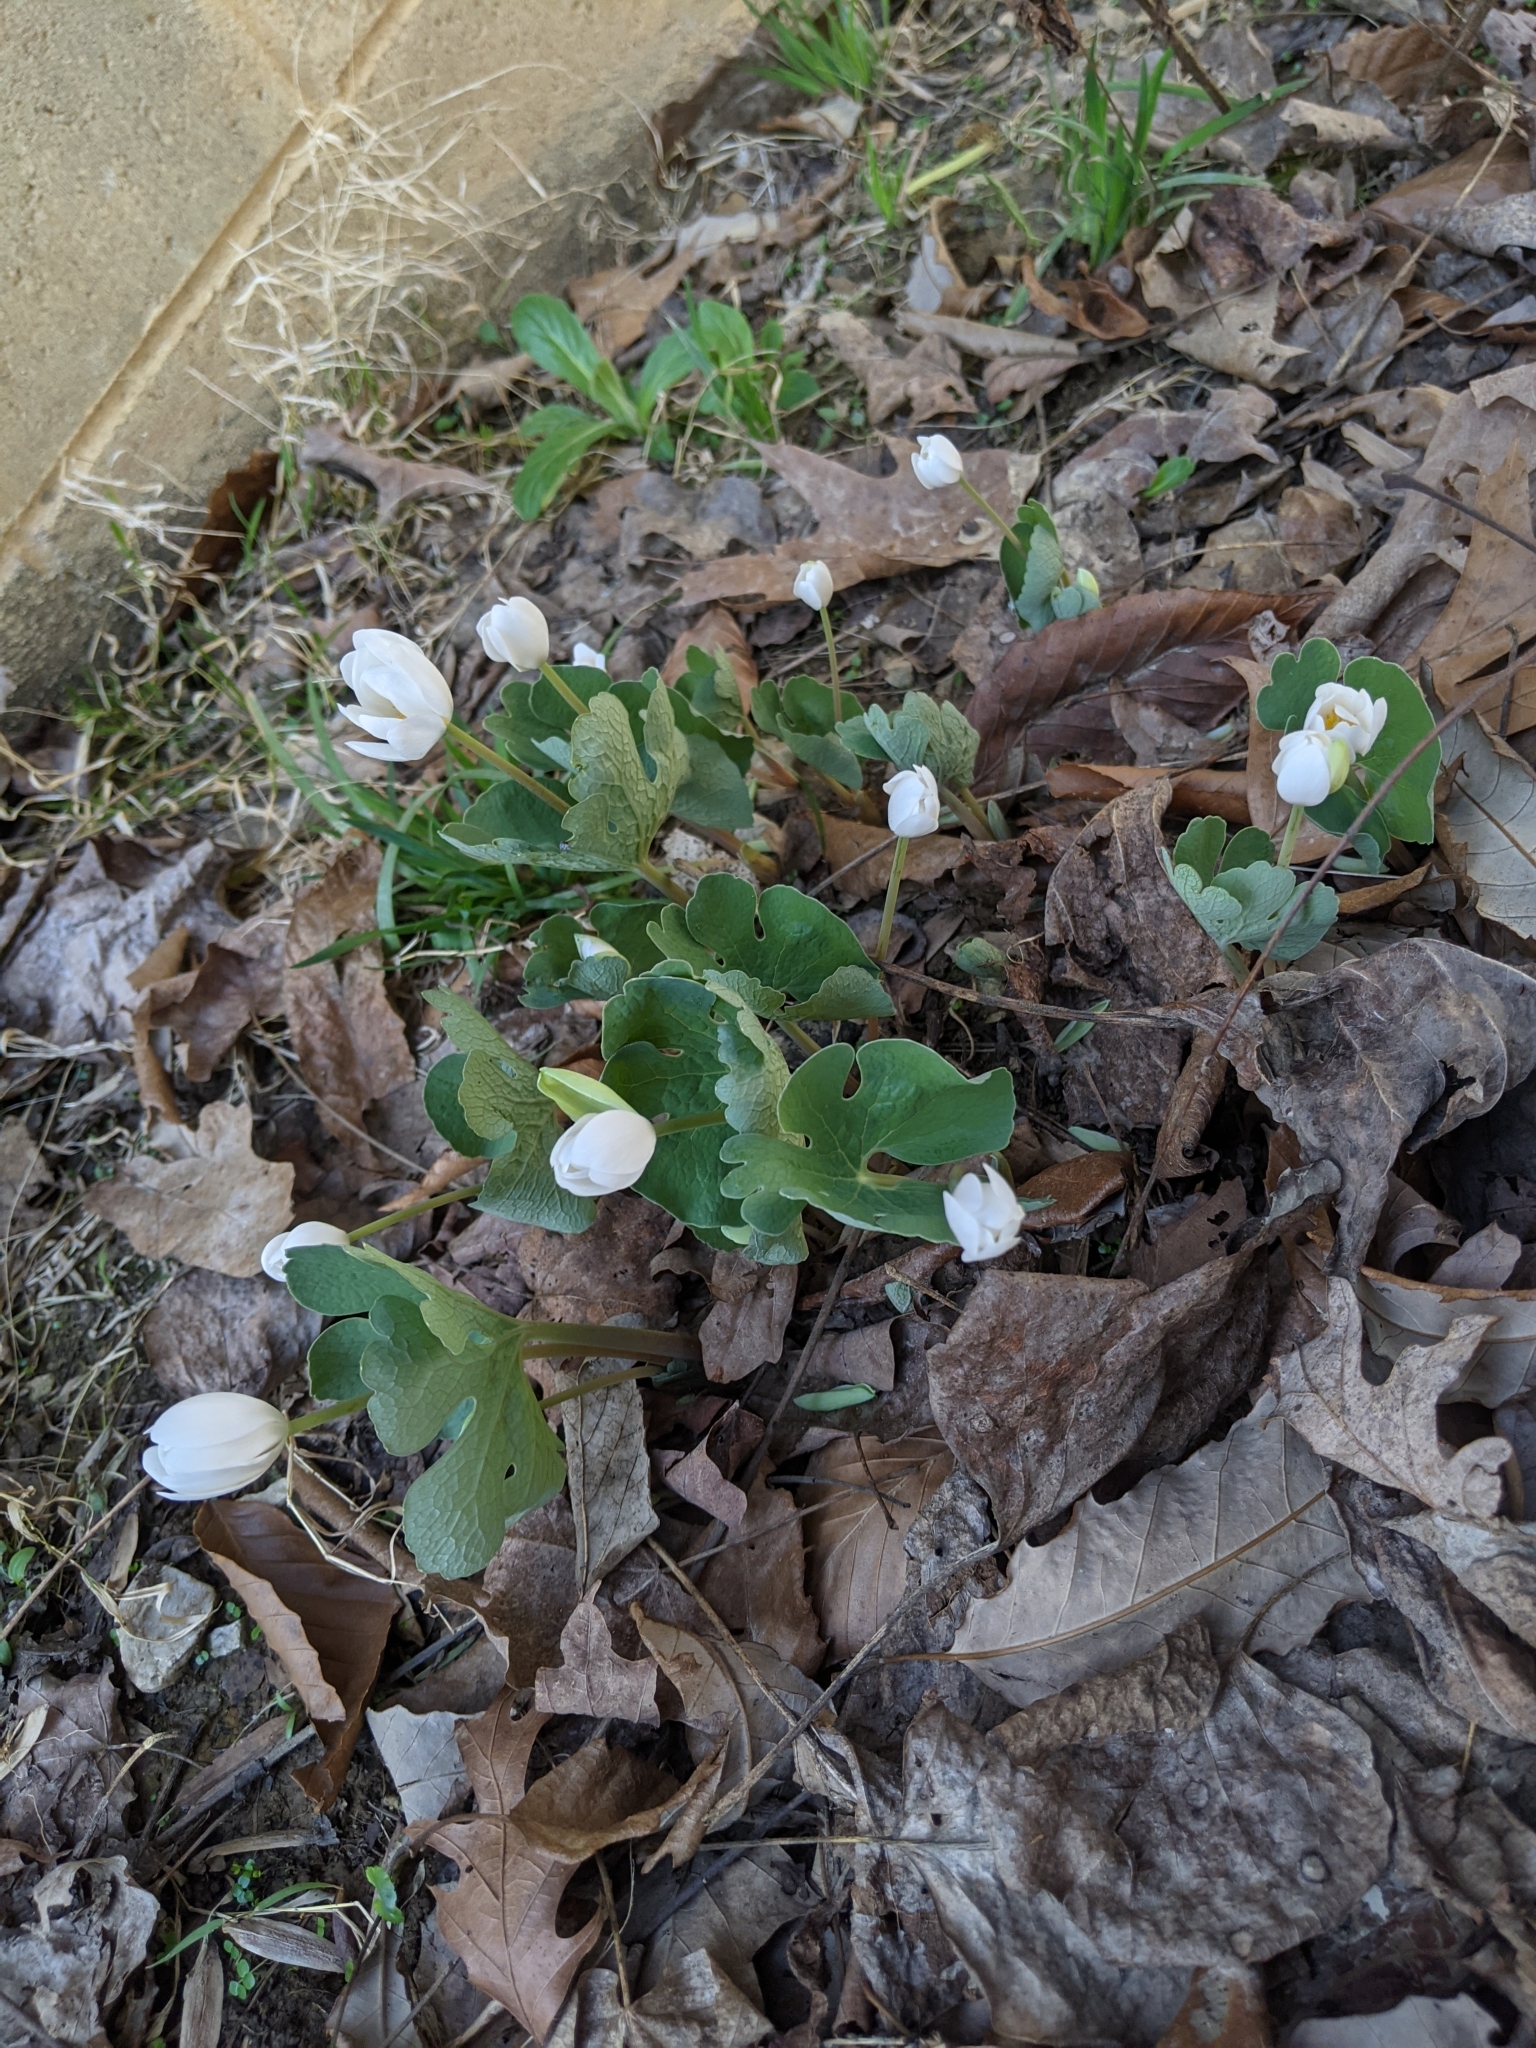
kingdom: Plantae
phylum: Tracheophyta
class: Magnoliopsida
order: Ranunculales
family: Papaveraceae
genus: Sanguinaria
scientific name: Sanguinaria canadensis
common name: Bloodroot
